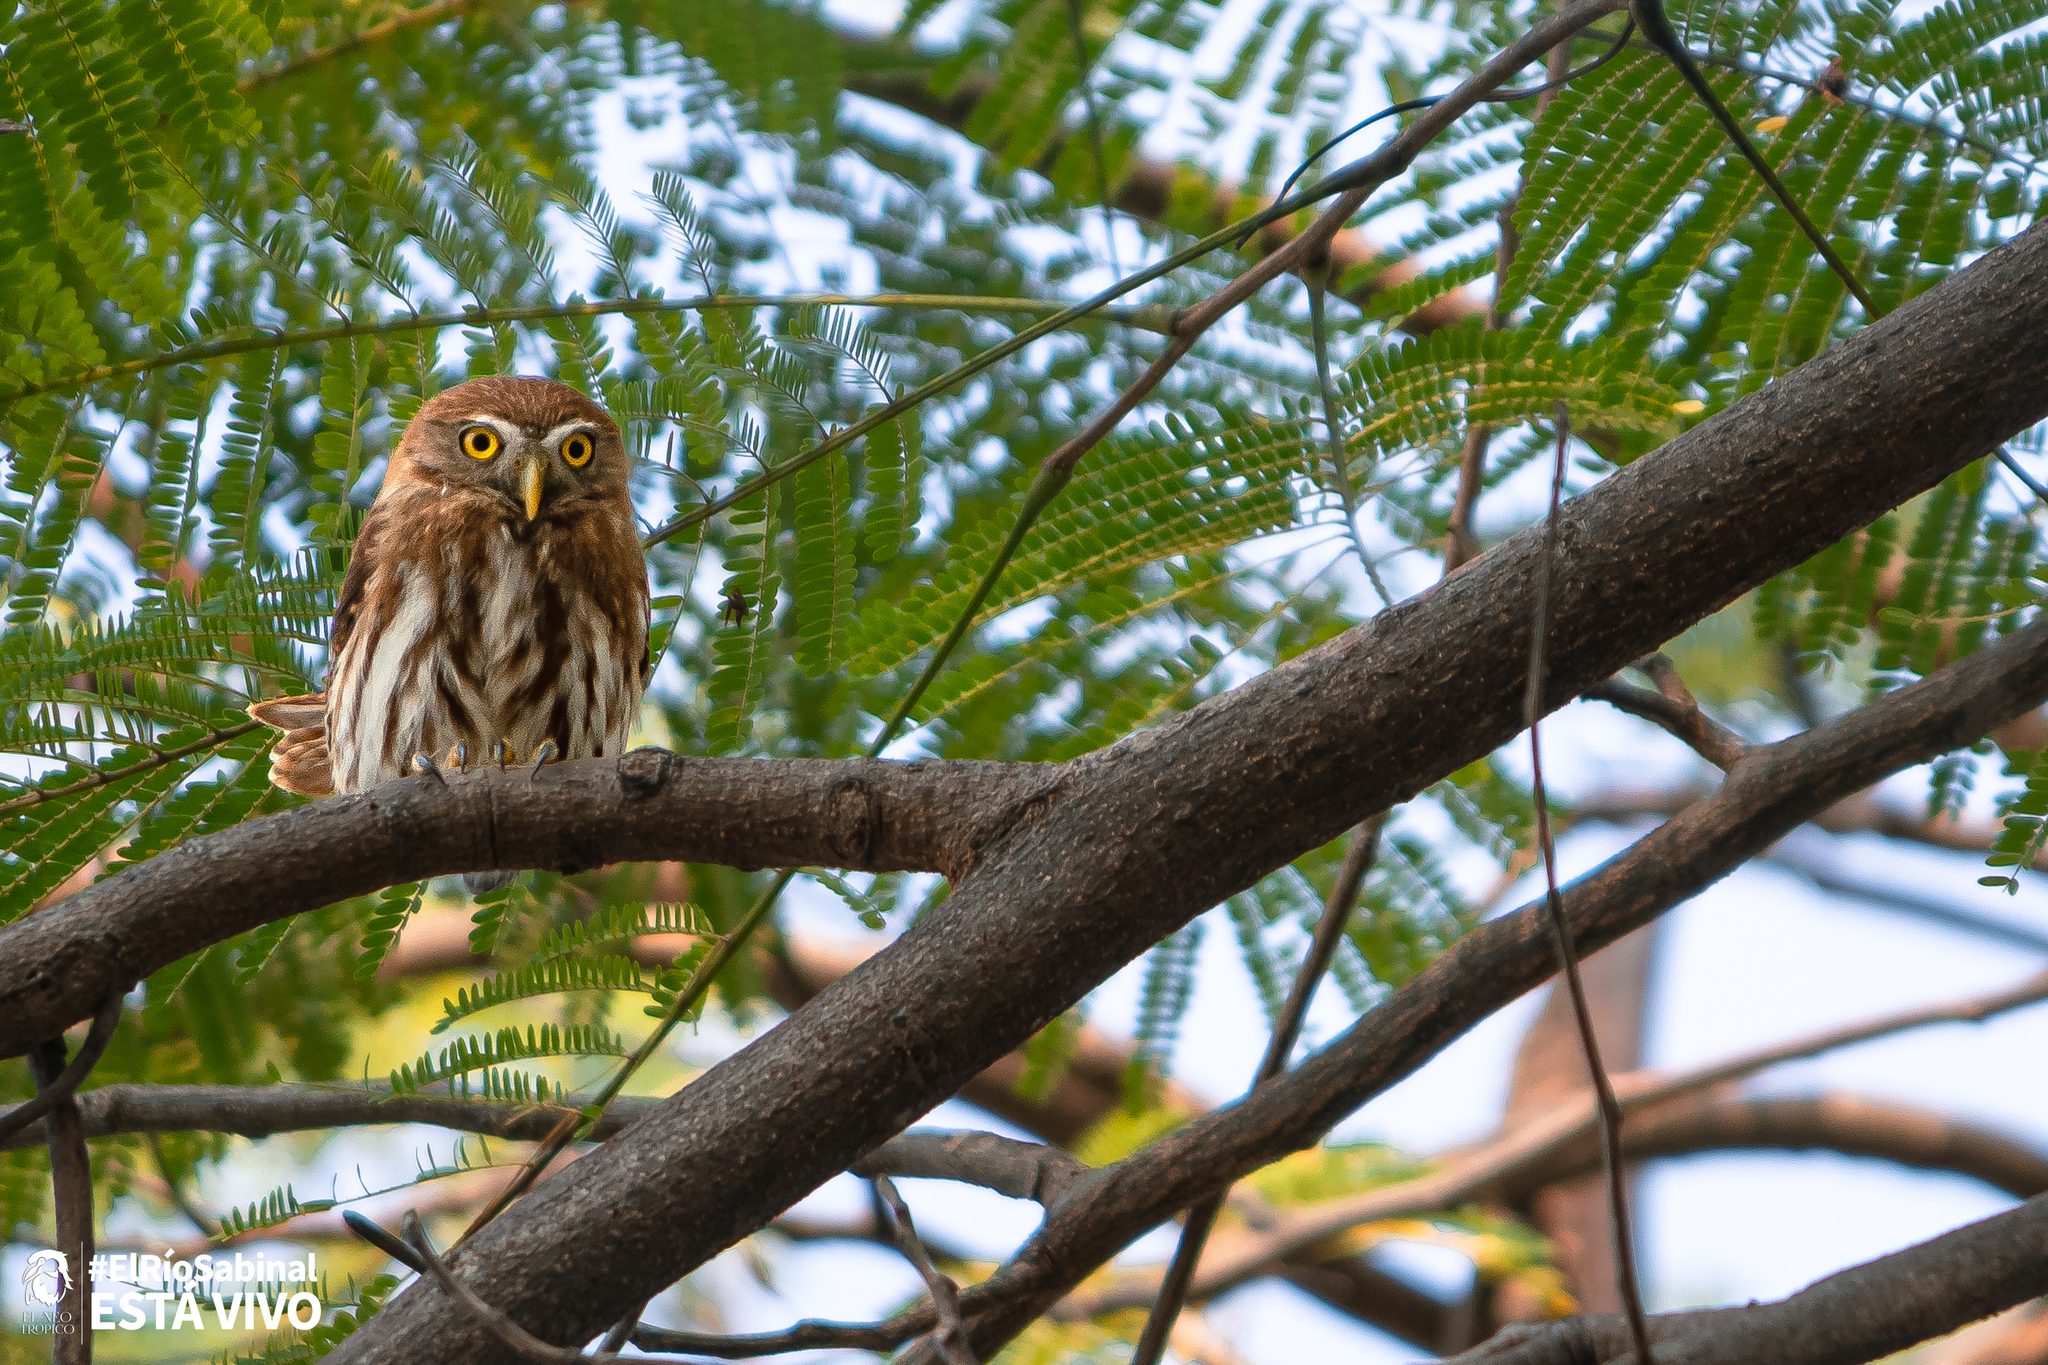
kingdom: Animalia
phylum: Chordata
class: Aves
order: Strigiformes
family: Strigidae
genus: Glaucidium
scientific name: Glaucidium brasilianum
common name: Ferruginous pygmy-owl
